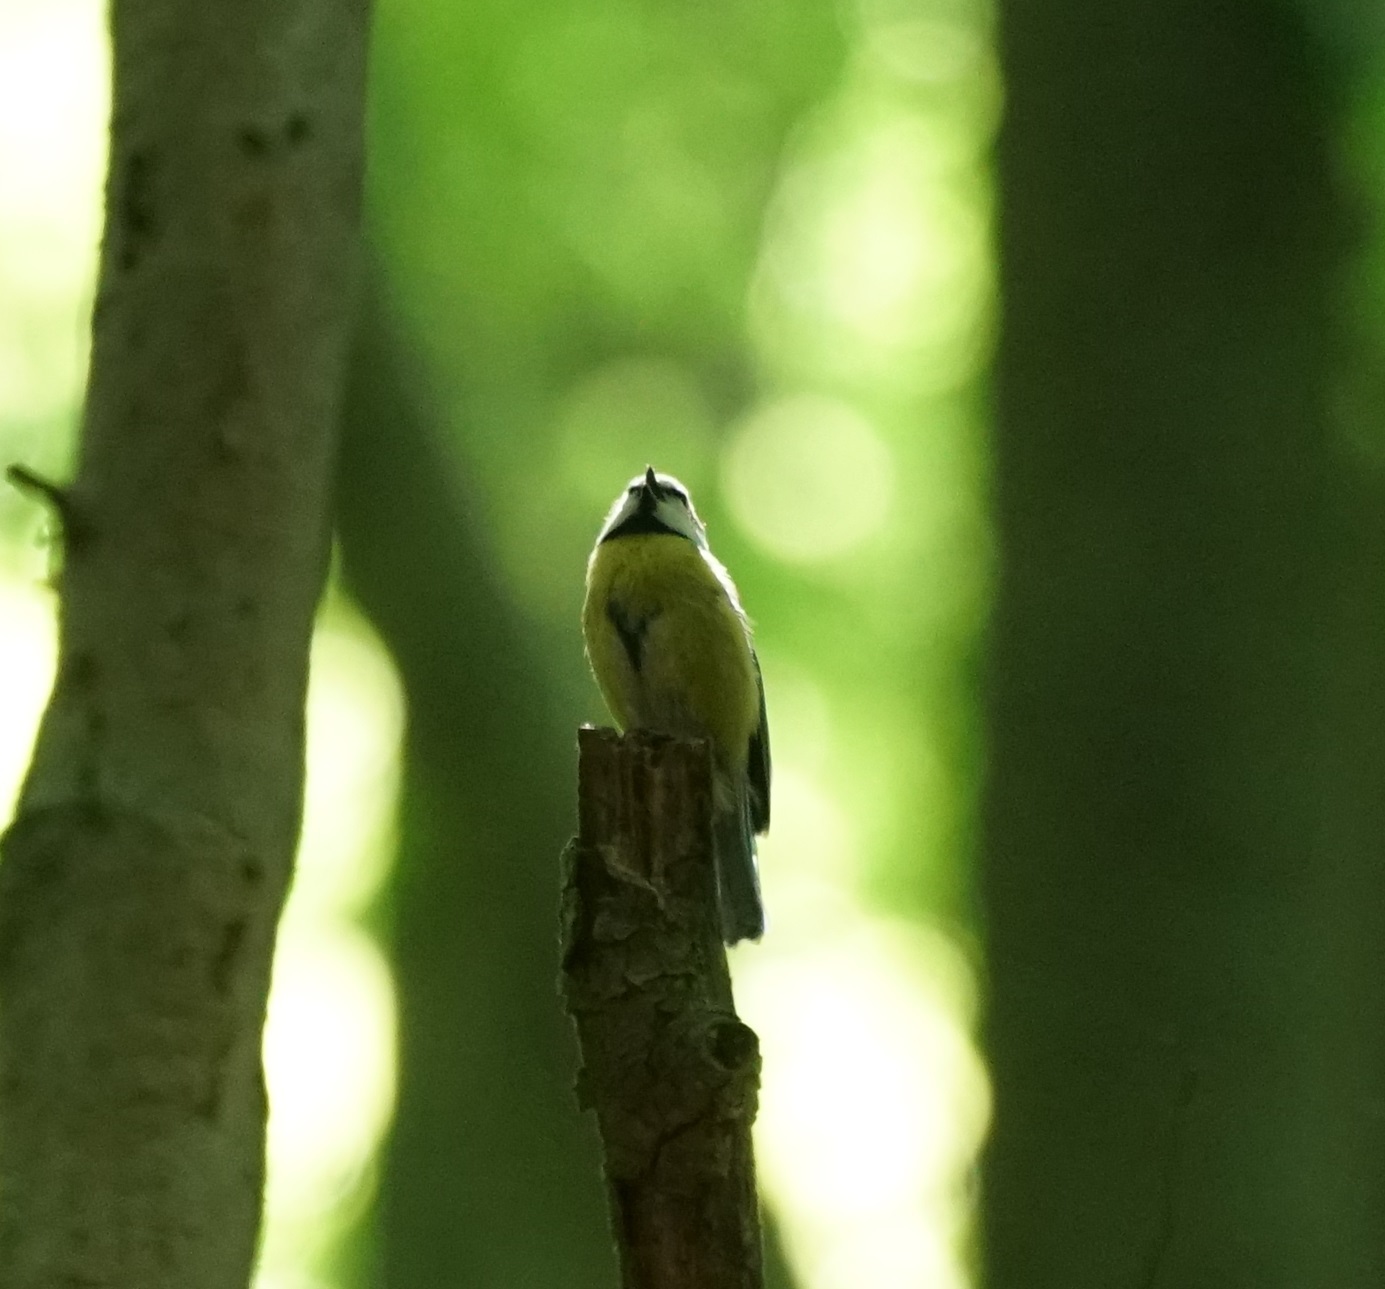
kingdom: Animalia
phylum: Chordata
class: Aves
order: Passeriformes
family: Paridae
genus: Cyanistes
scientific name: Cyanistes caeruleus
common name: Eurasian blue tit
